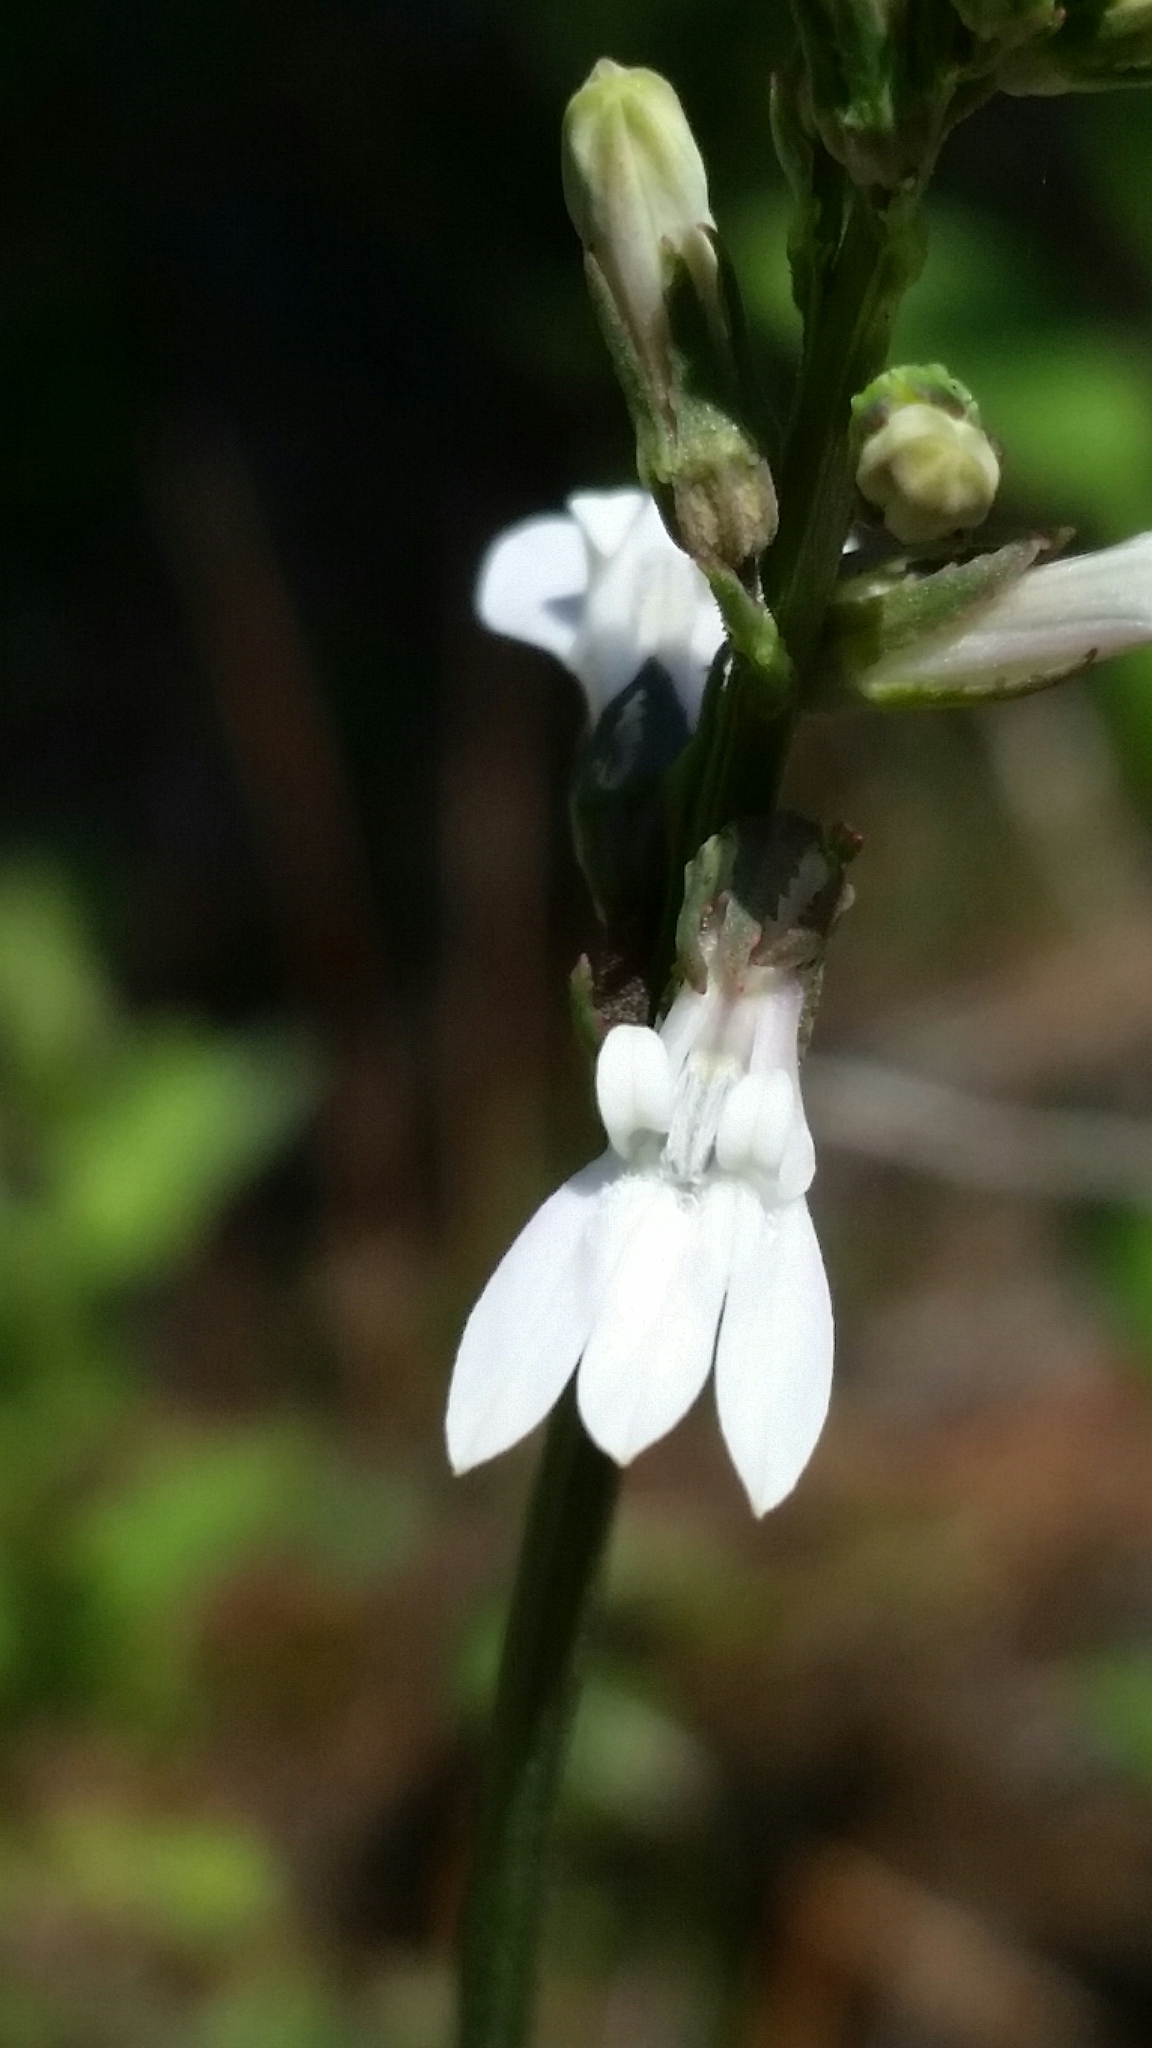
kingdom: Plantae
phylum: Tracheophyta
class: Magnoliopsida
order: Asterales
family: Campanulaceae
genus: Lobelia
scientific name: Lobelia paludosa
